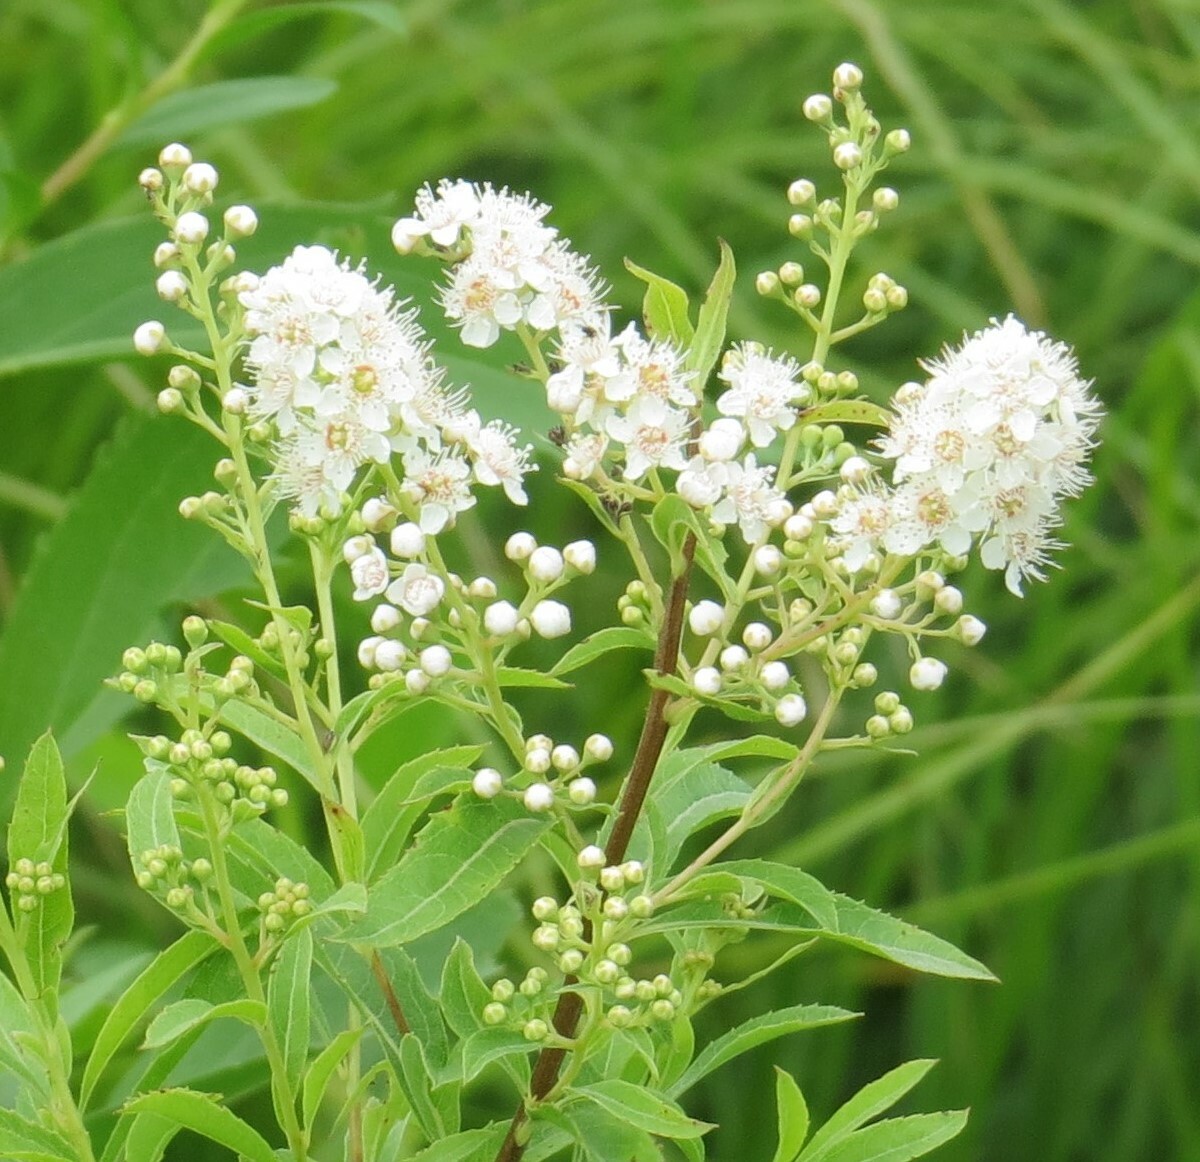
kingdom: Plantae
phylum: Tracheophyta
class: Magnoliopsida
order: Rosales
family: Rosaceae
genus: Spiraea
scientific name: Spiraea alba
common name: Pale bridewort
